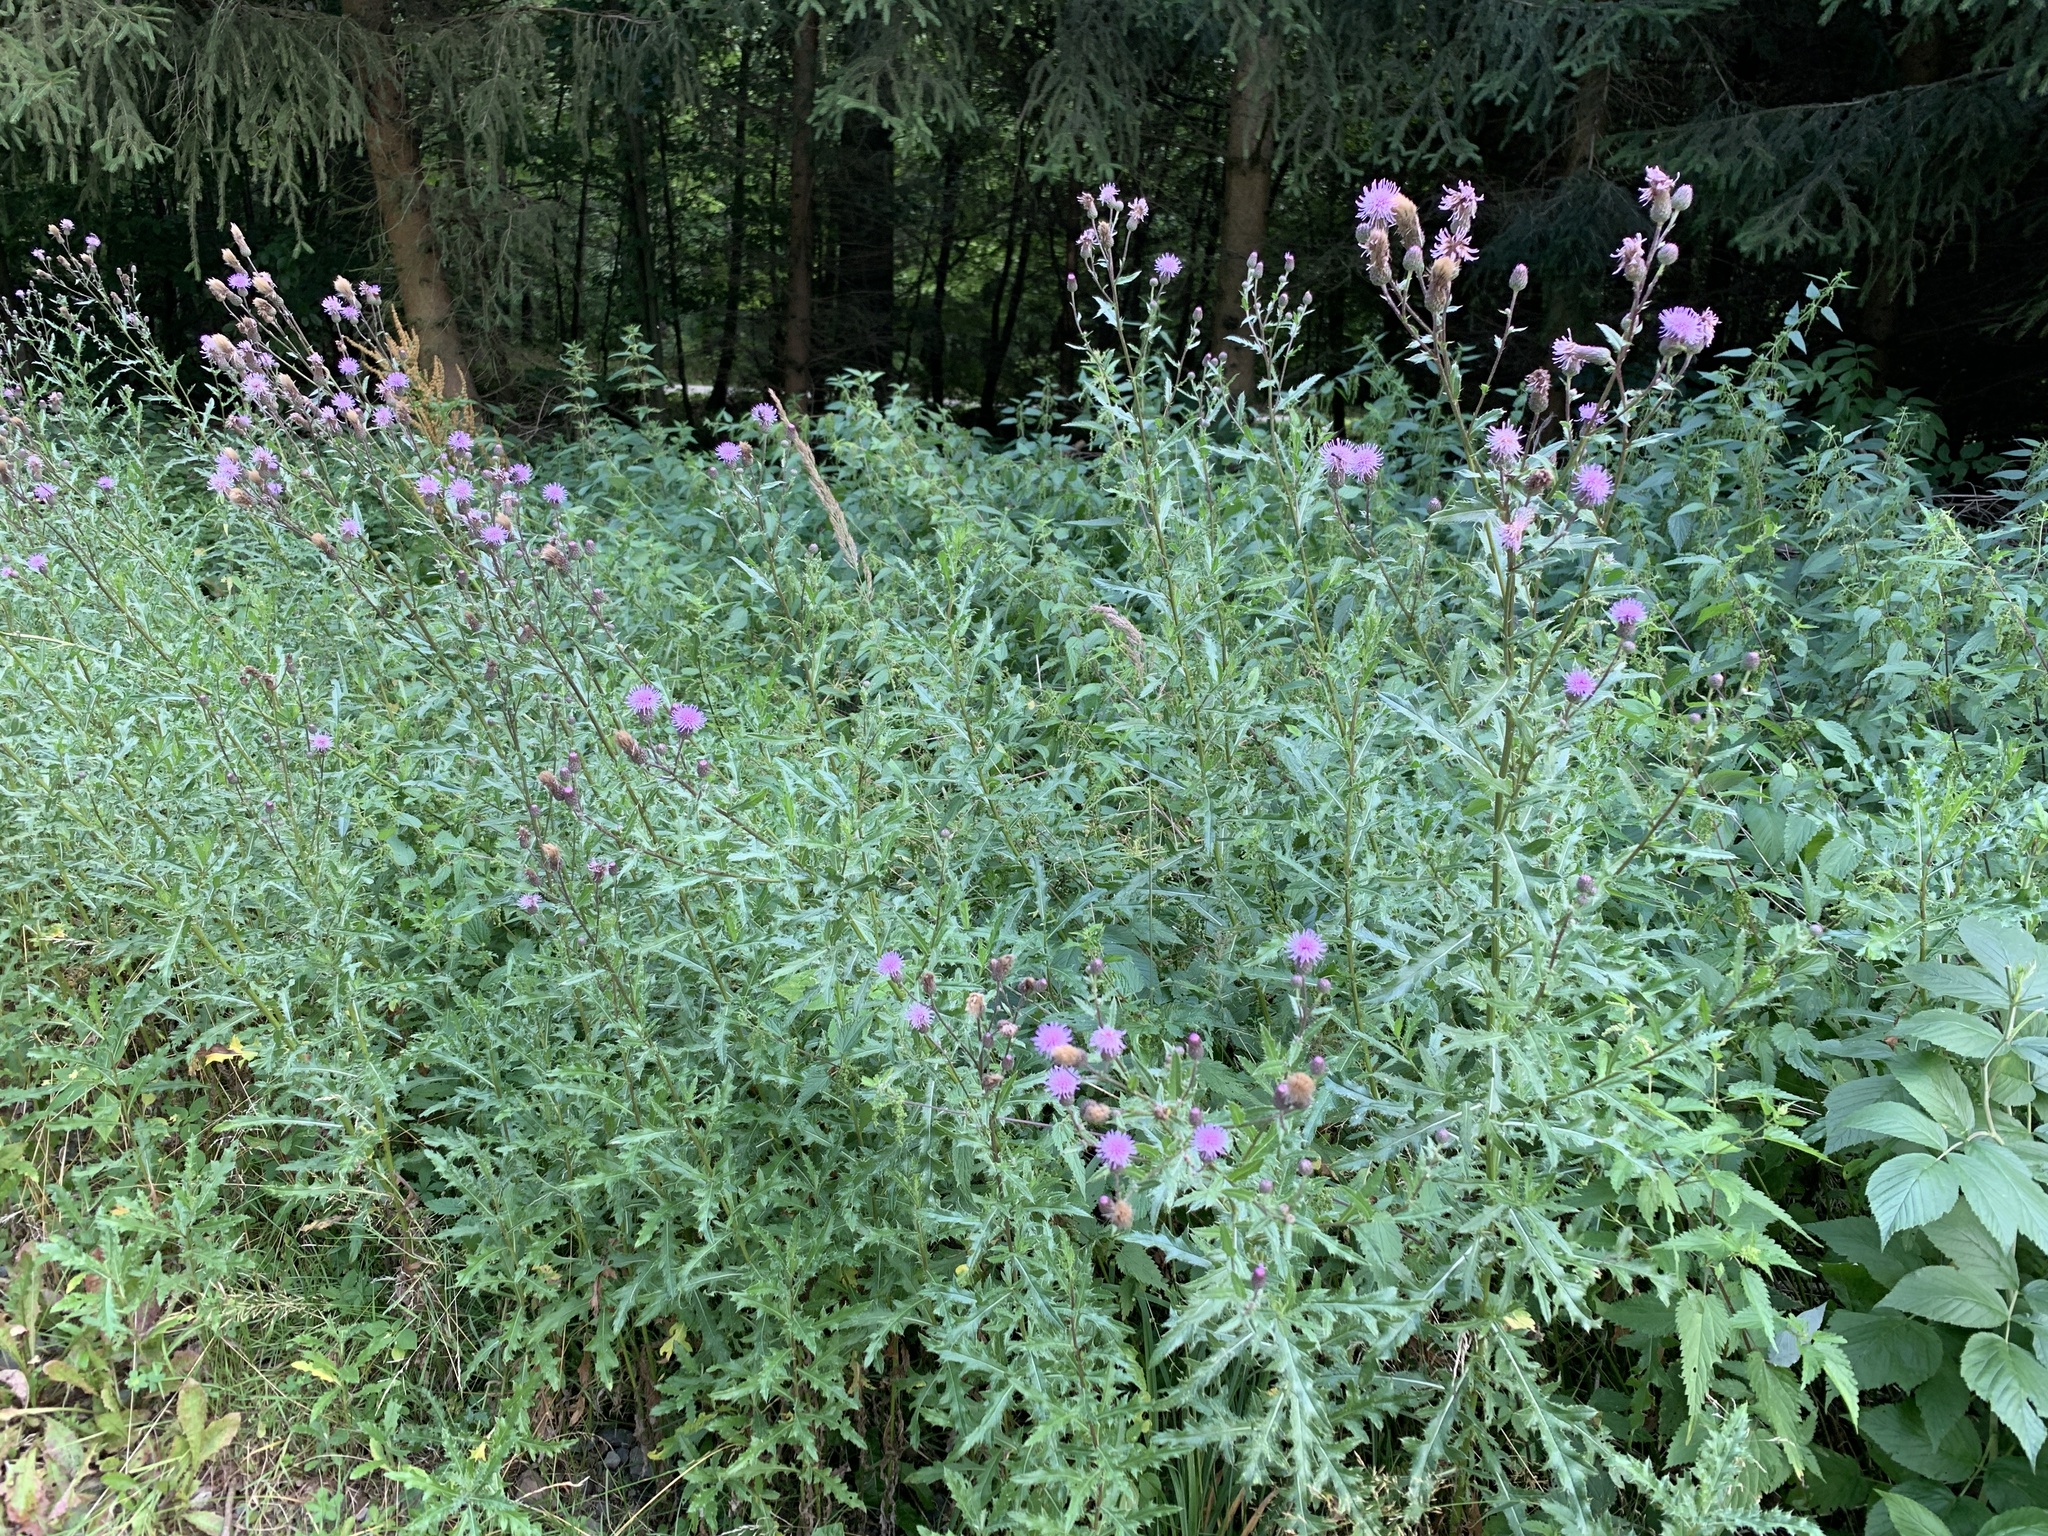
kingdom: Plantae
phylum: Tracheophyta
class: Magnoliopsida
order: Asterales
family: Asteraceae
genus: Cirsium
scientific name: Cirsium arvense
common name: Creeping thistle
